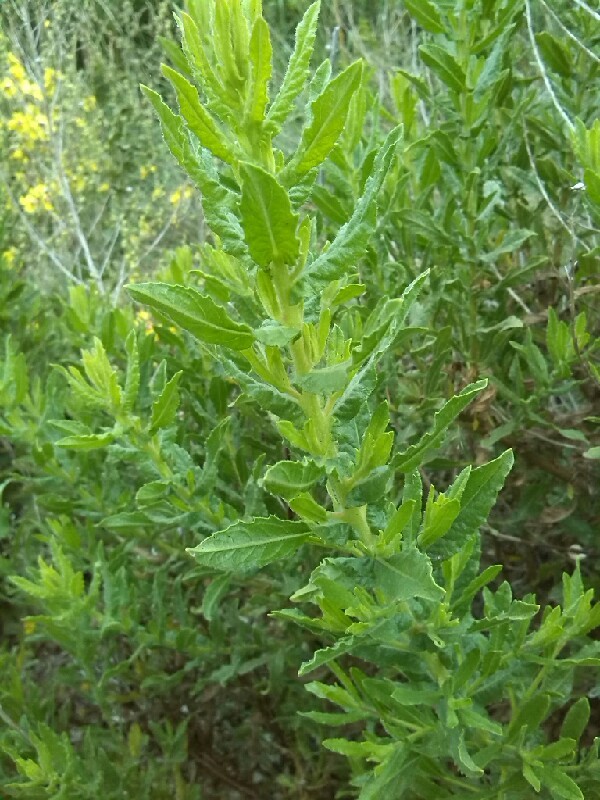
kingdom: Plantae
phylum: Tracheophyta
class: Magnoliopsida
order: Asterales
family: Asteraceae
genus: Dittrichia
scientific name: Dittrichia viscosa
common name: Woody fleabane
